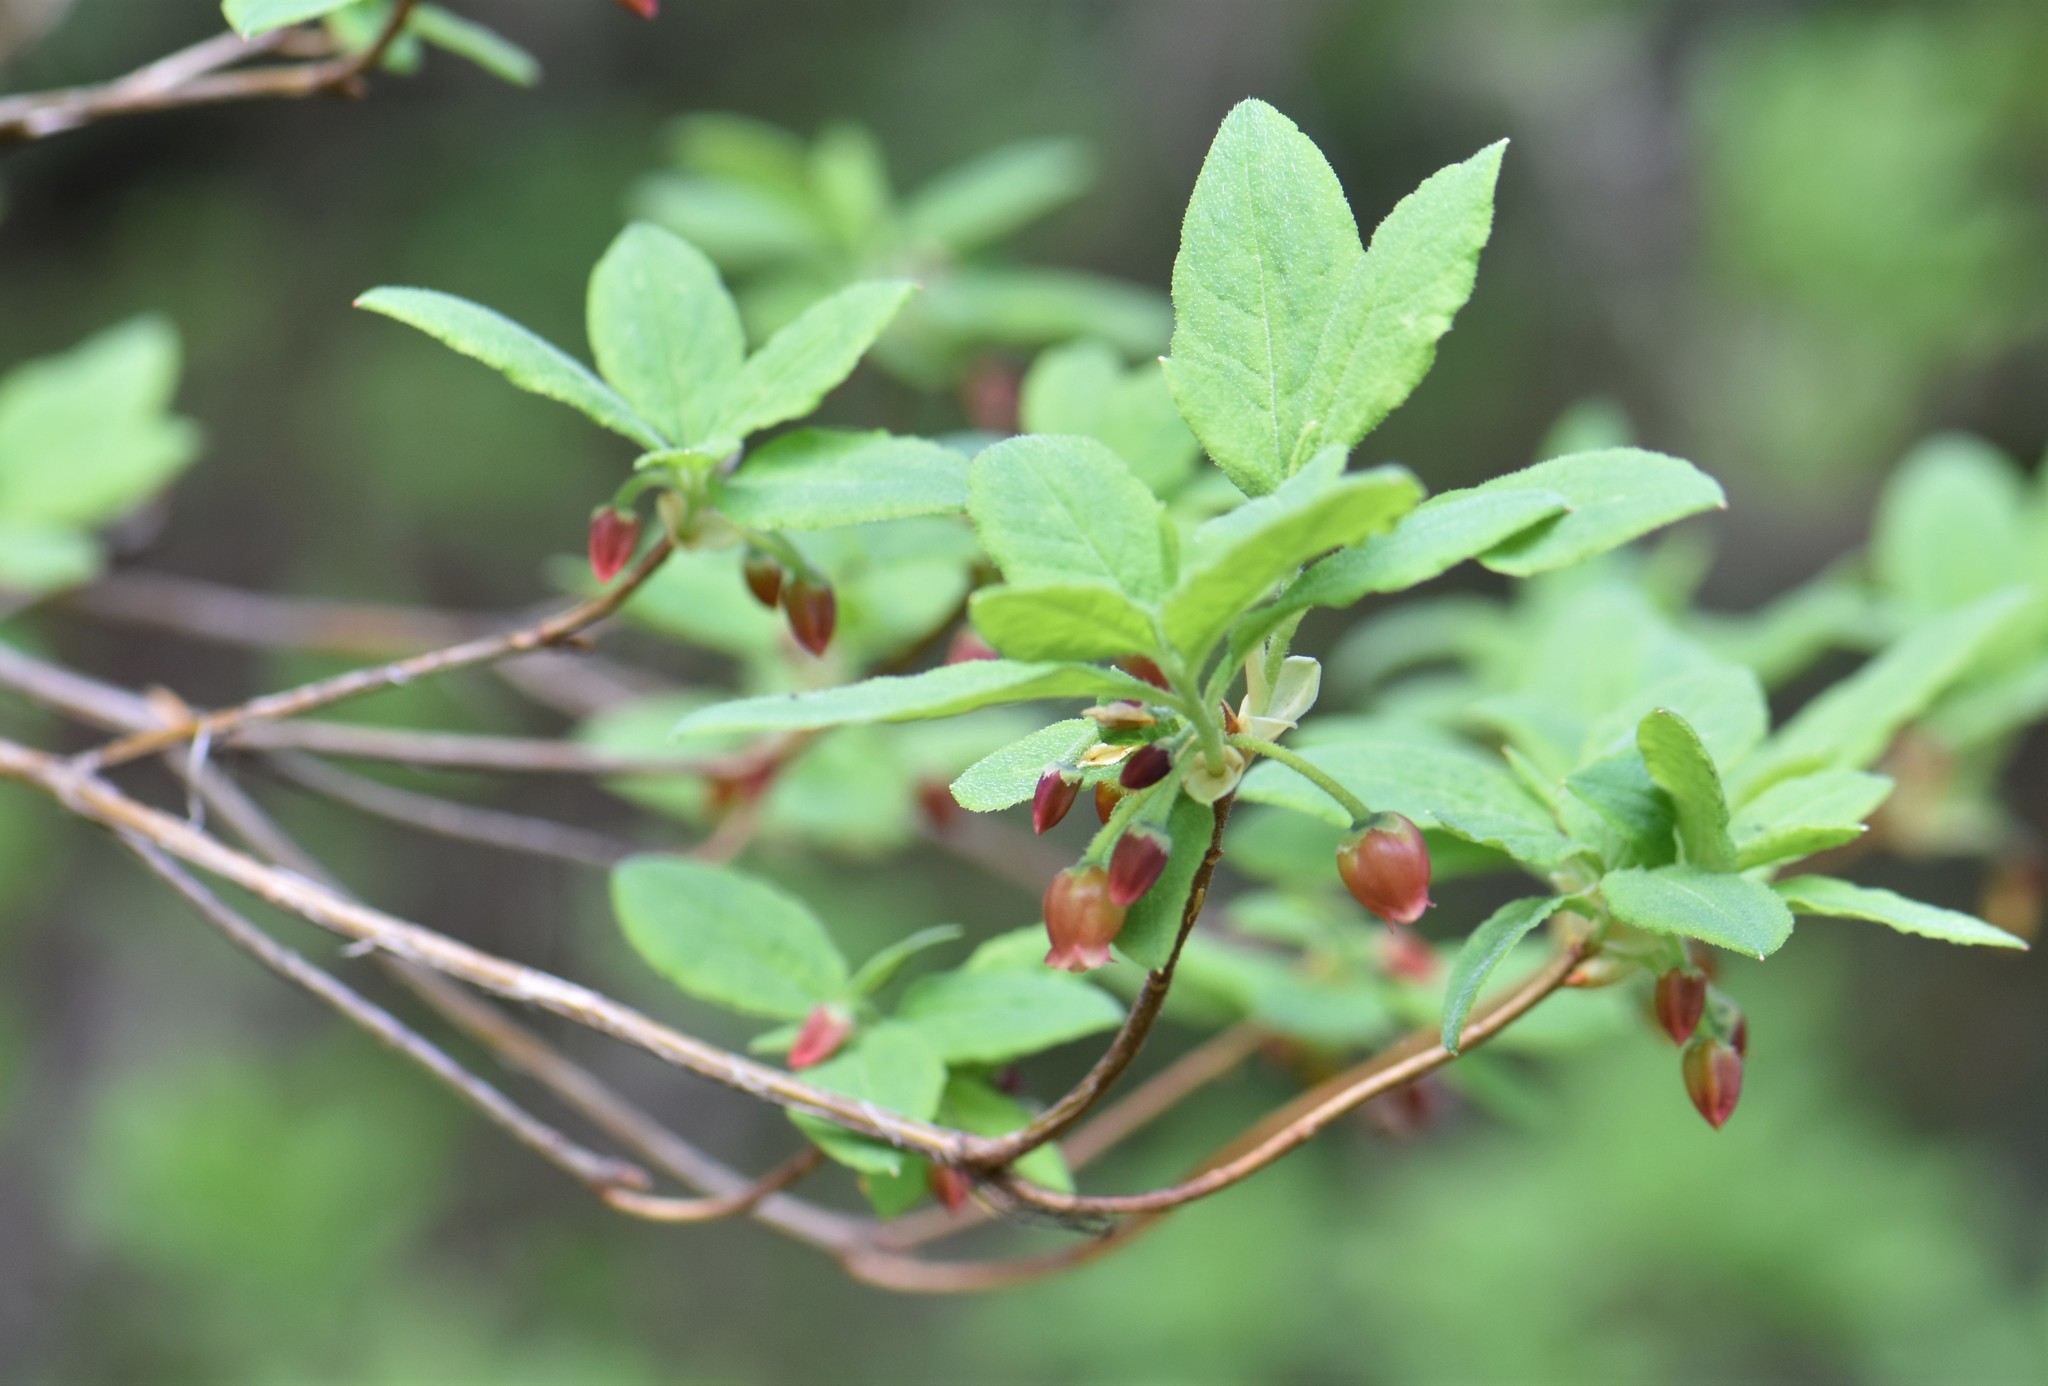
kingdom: Plantae
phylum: Tracheophyta
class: Magnoliopsida
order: Ericales
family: Ericaceae
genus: Rhododendron
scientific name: Rhododendron menziesii
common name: Pacific menziesia
